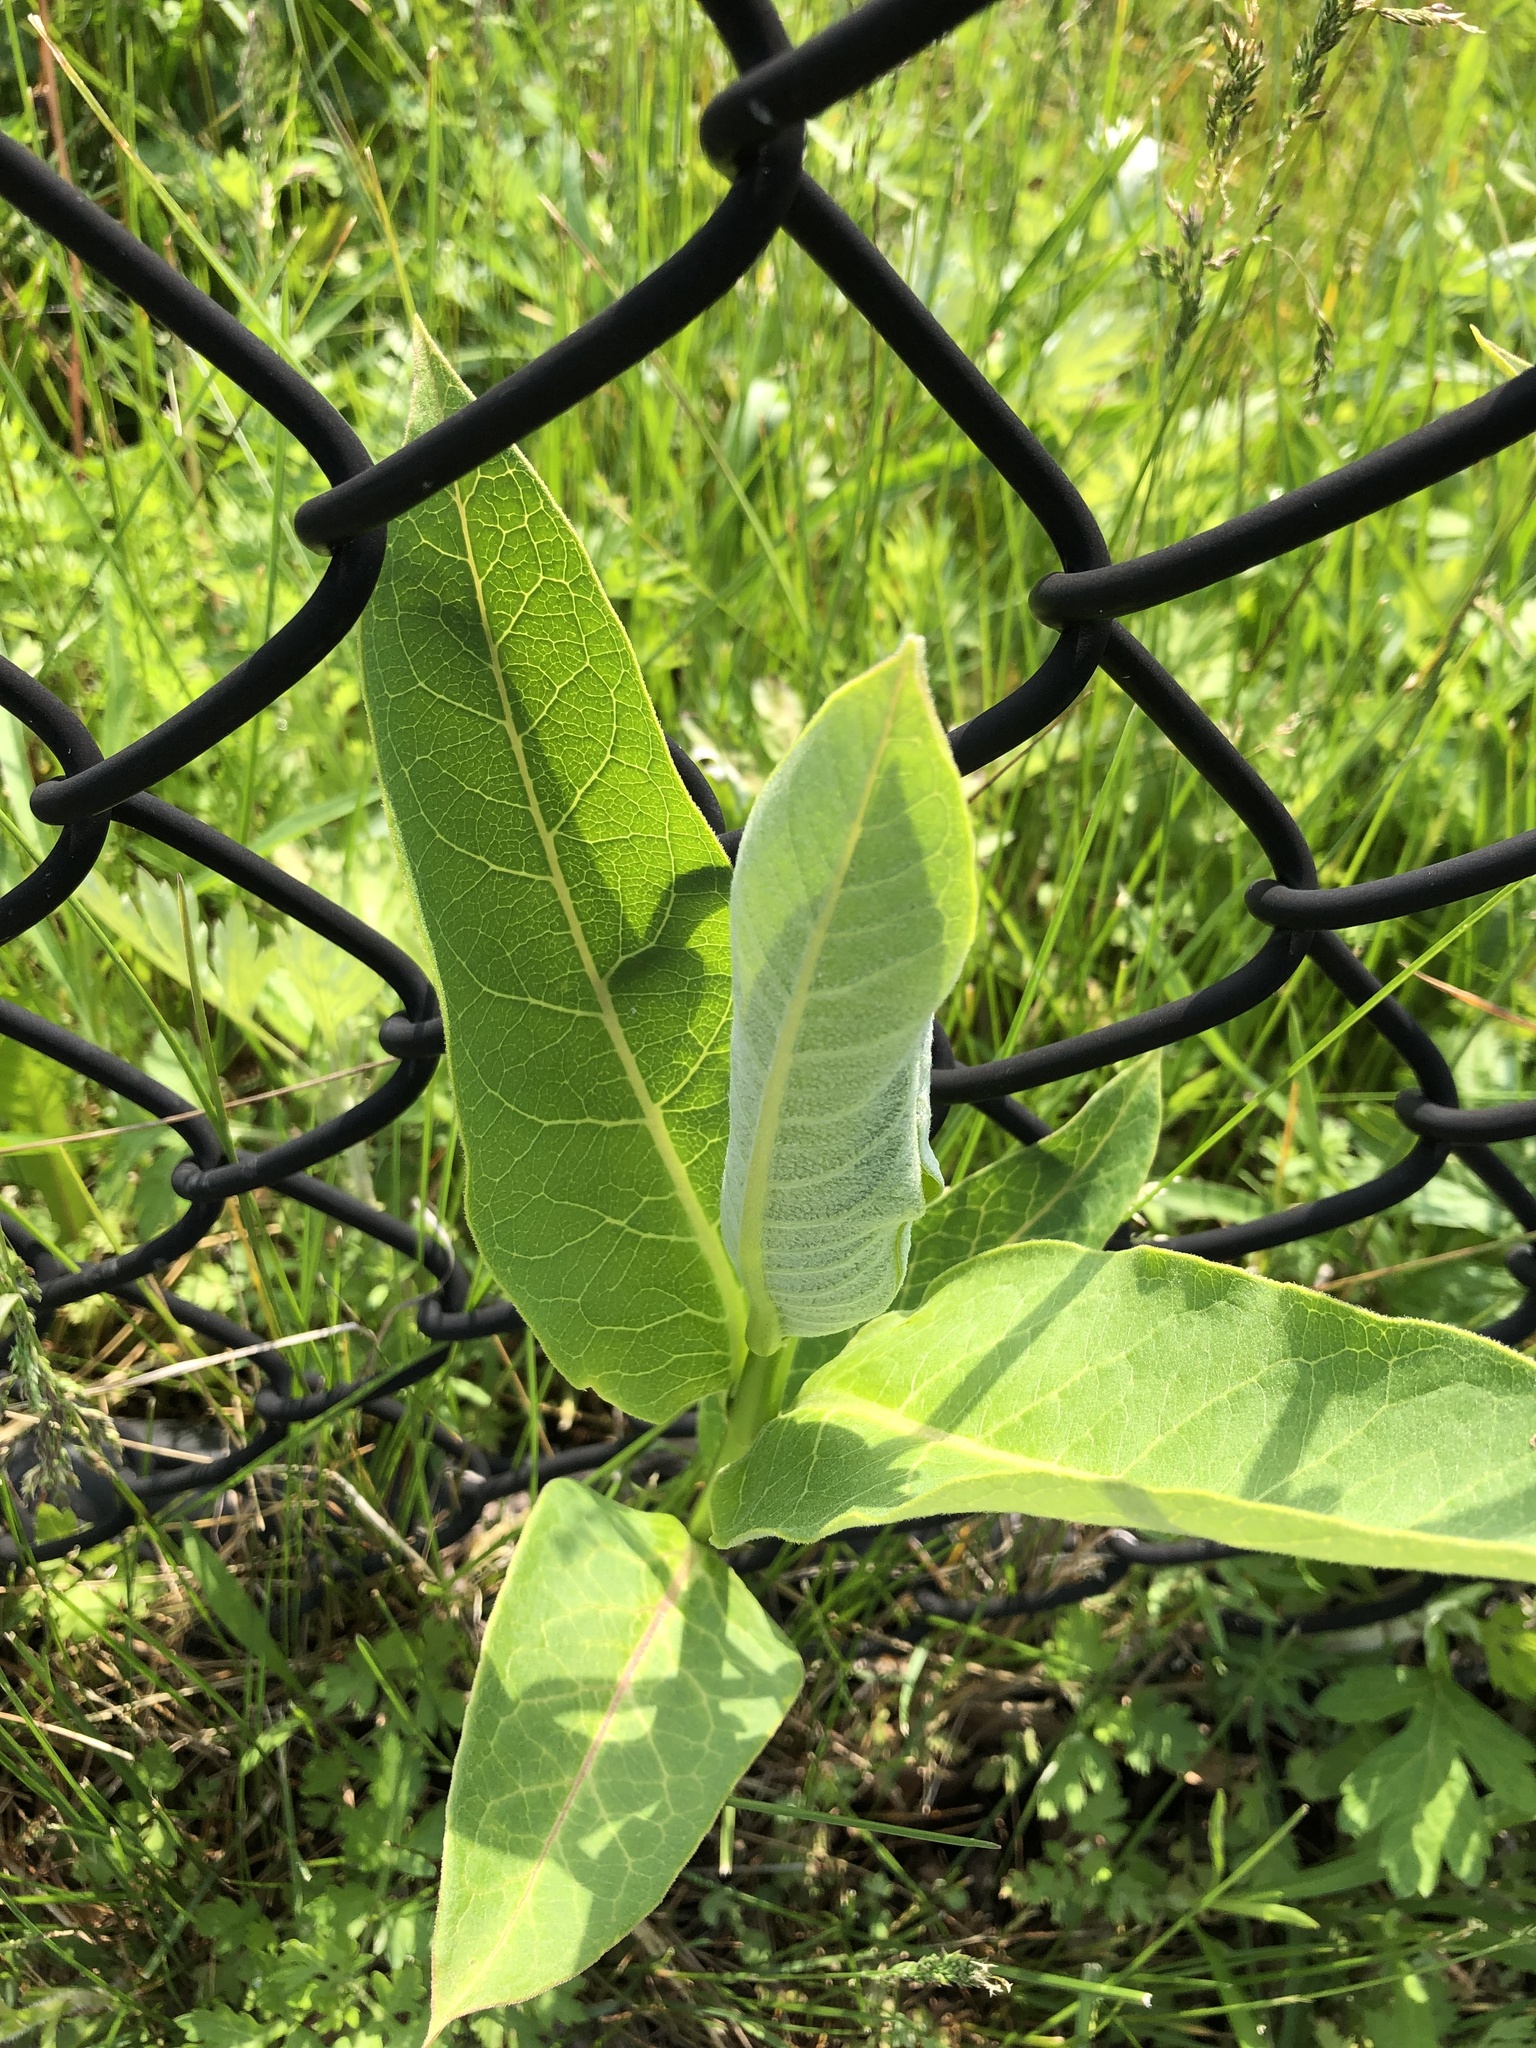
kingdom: Plantae
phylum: Tracheophyta
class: Magnoliopsida
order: Gentianales
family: Apocynaceae
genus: Asclepias
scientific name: Asclepias syriaca
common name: Common milkweed
